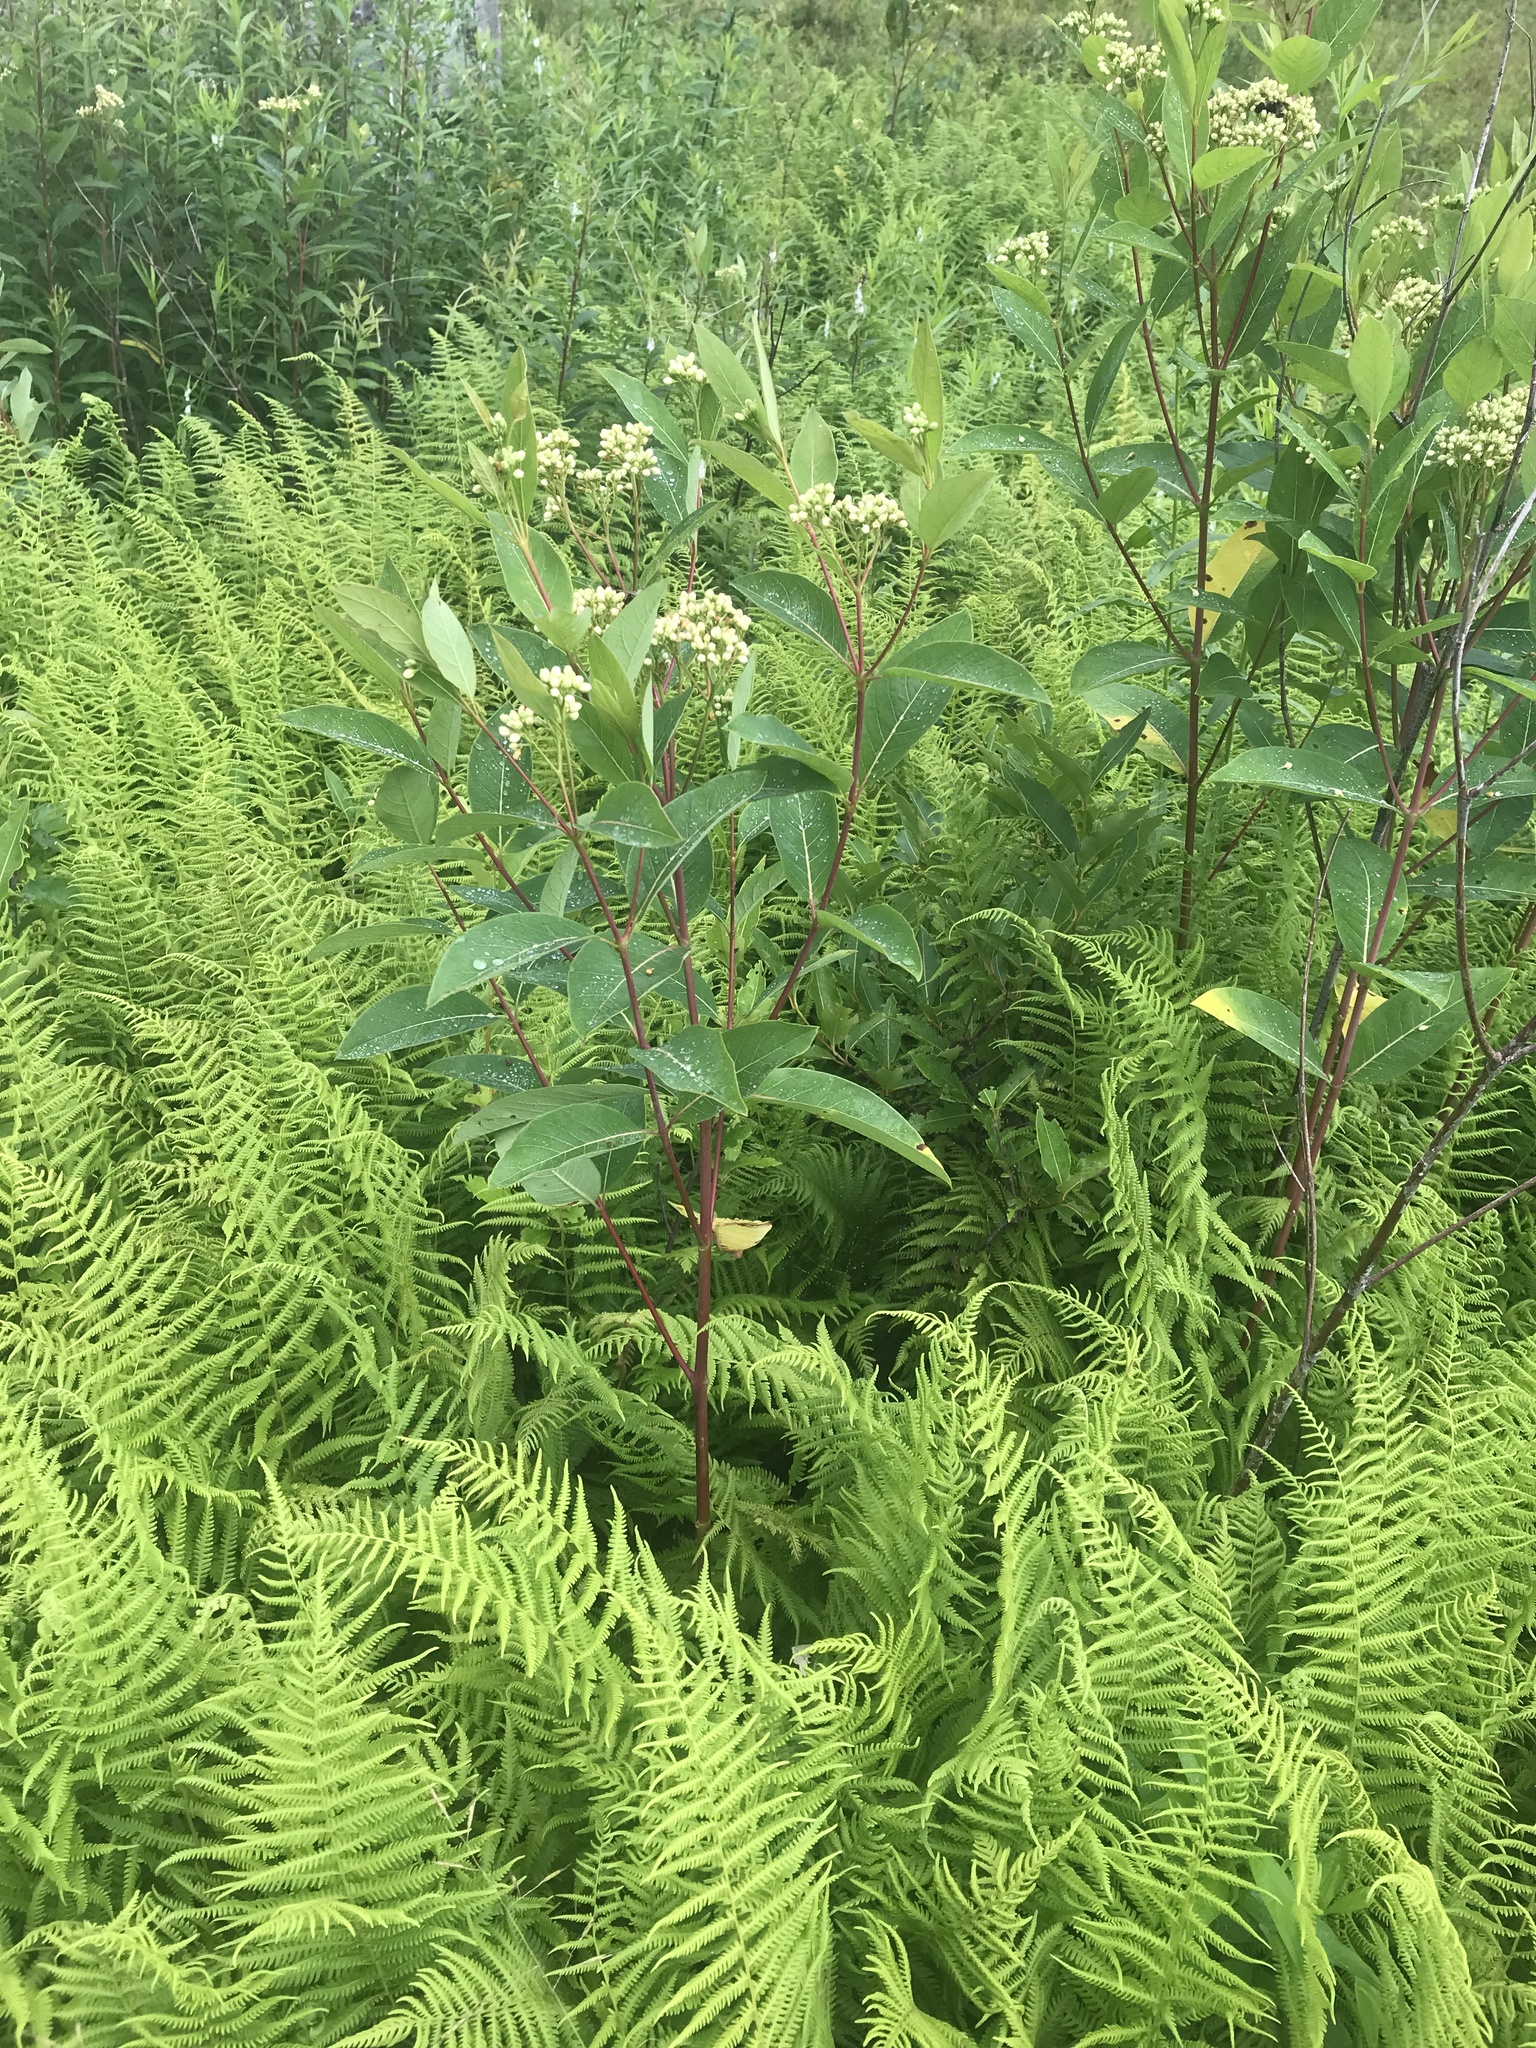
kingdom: Plantae
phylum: Tracheophyta
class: Magnoliopsida
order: Gentianales
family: Apocynaceae
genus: Apocynum
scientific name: Apocynum cannabinum
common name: Hemp dogbane
